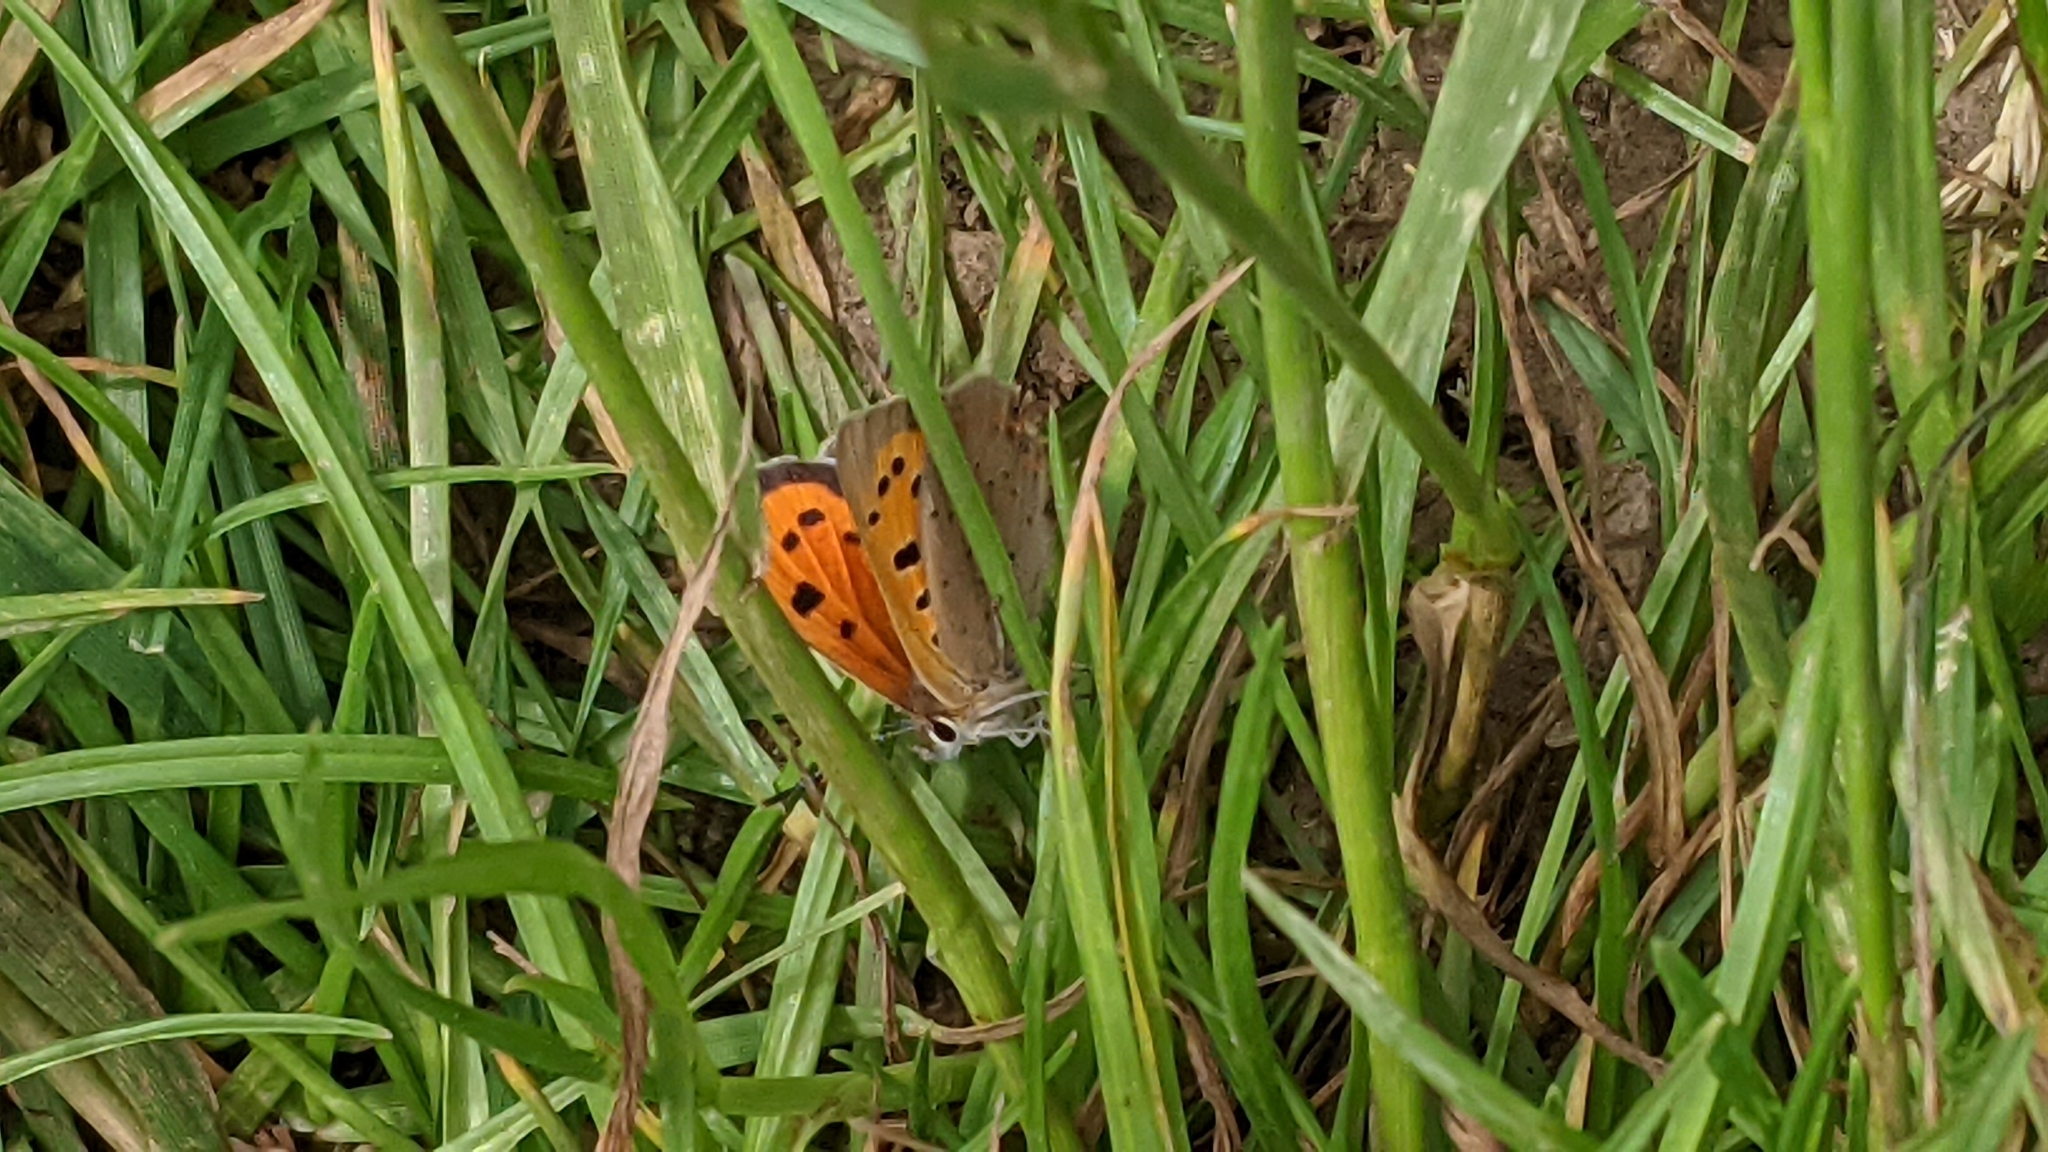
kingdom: Animalia
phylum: Arthropoda
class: Insecta
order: Lepidoptera
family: Lycaenidae
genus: Lycaena
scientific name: Lycaena phlaeas
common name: Small copper
